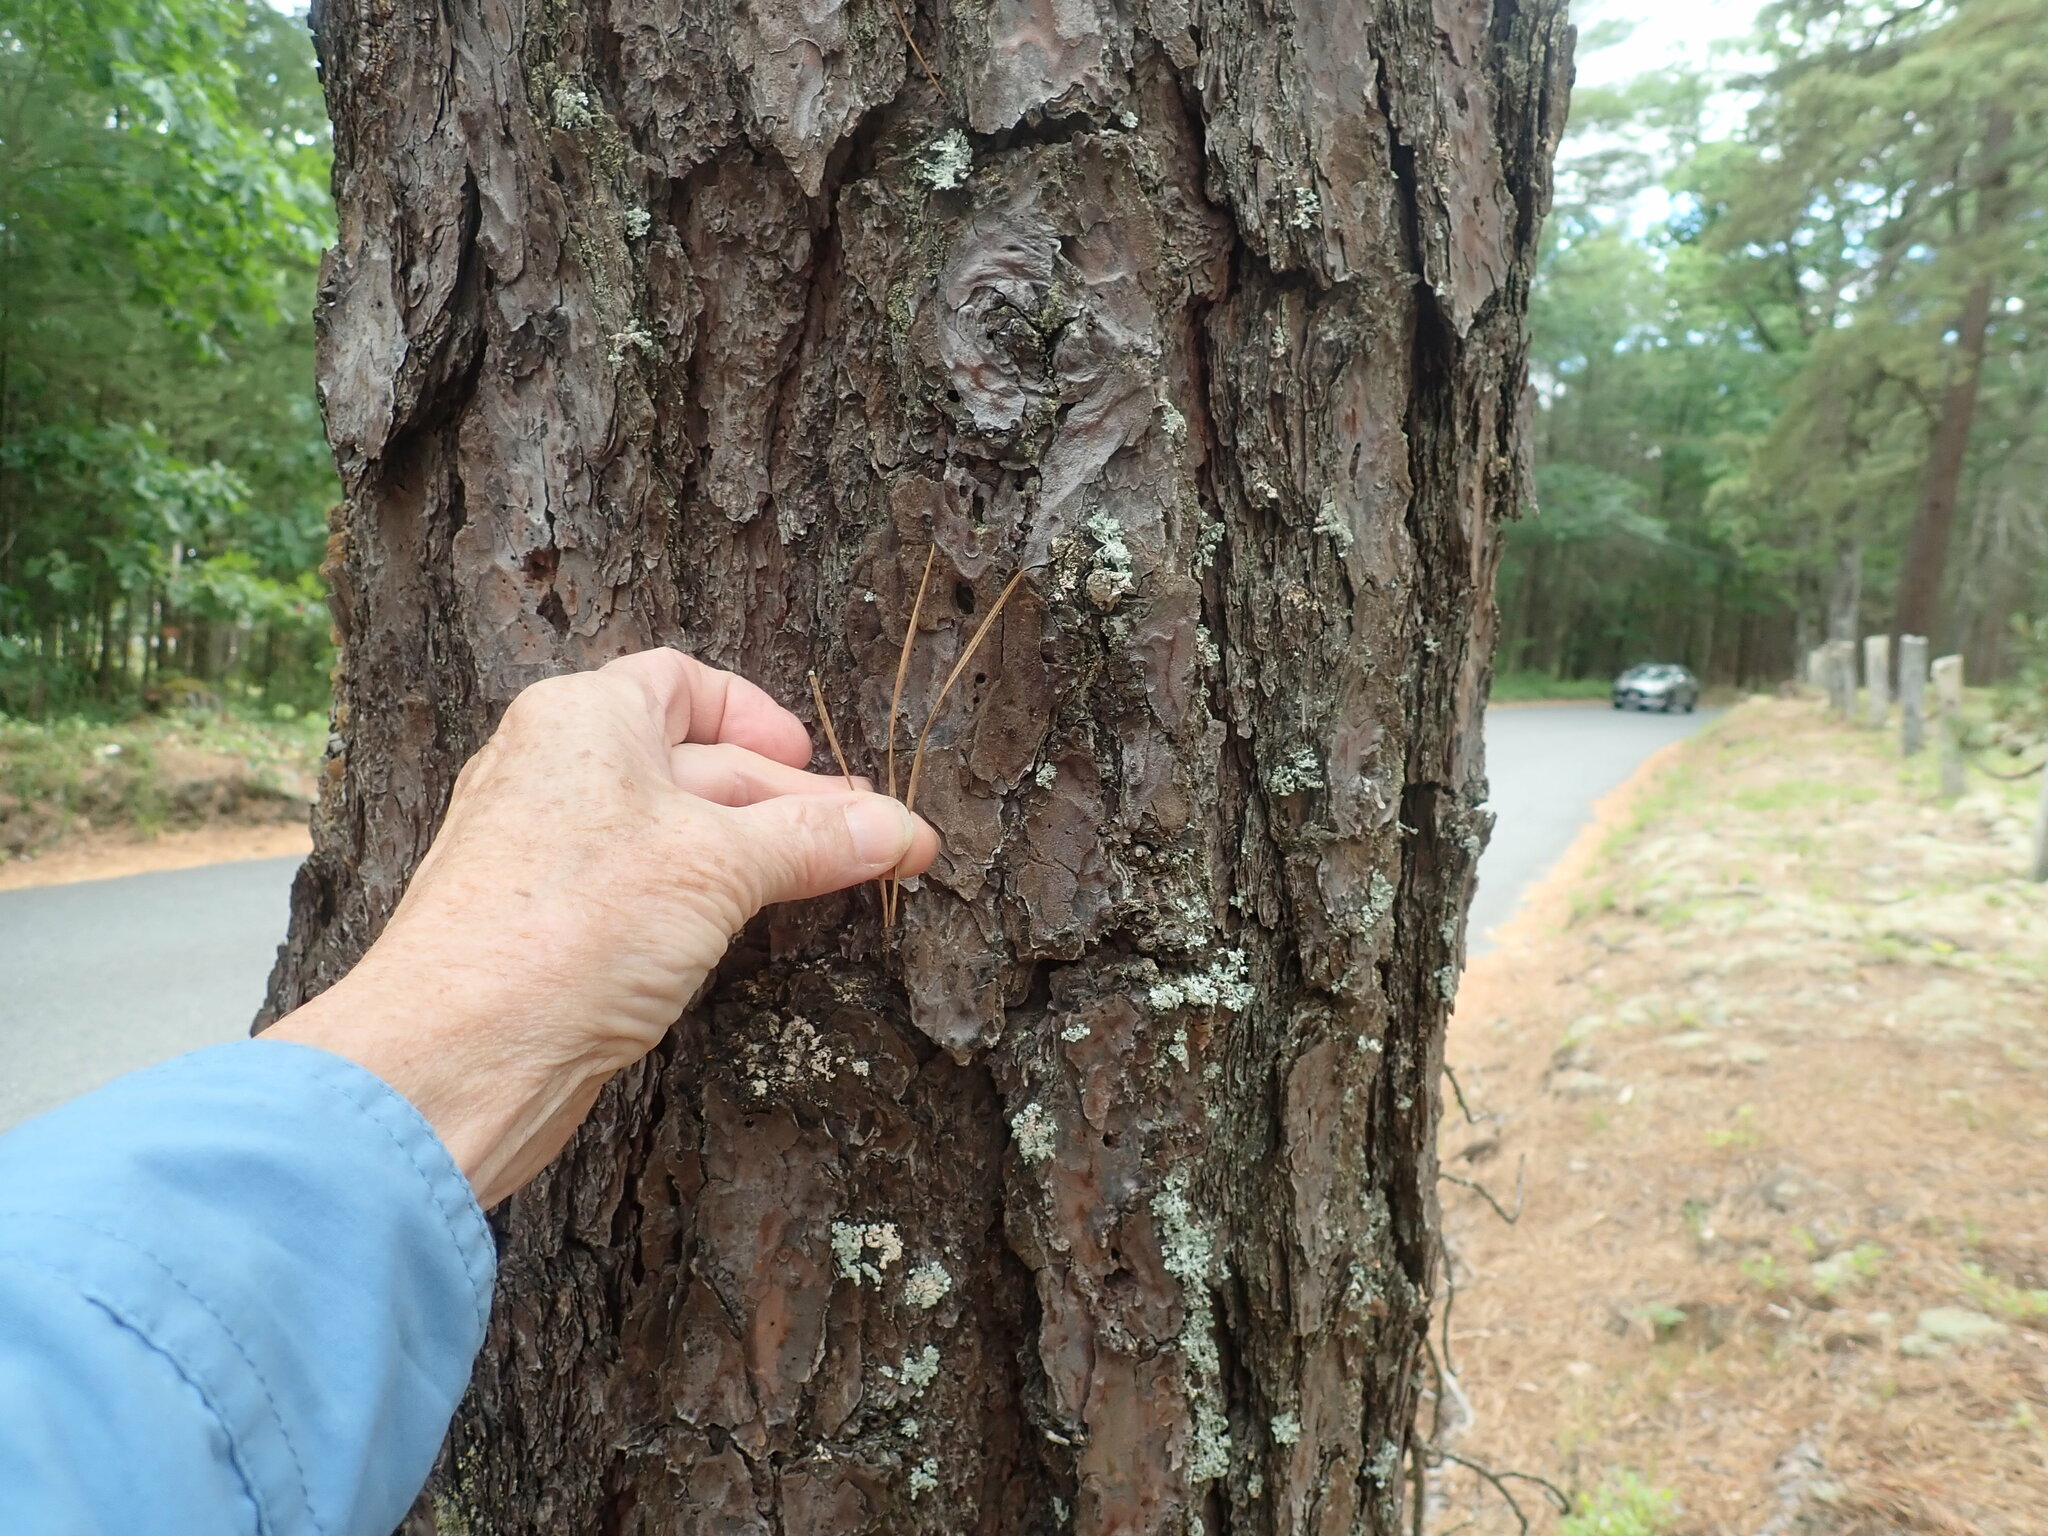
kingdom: Plantae
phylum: Tracheophyta
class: Pinopsida
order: Pinales
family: Pinaceae
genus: Pinus
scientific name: Pinus rigida
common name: Pitch pine
